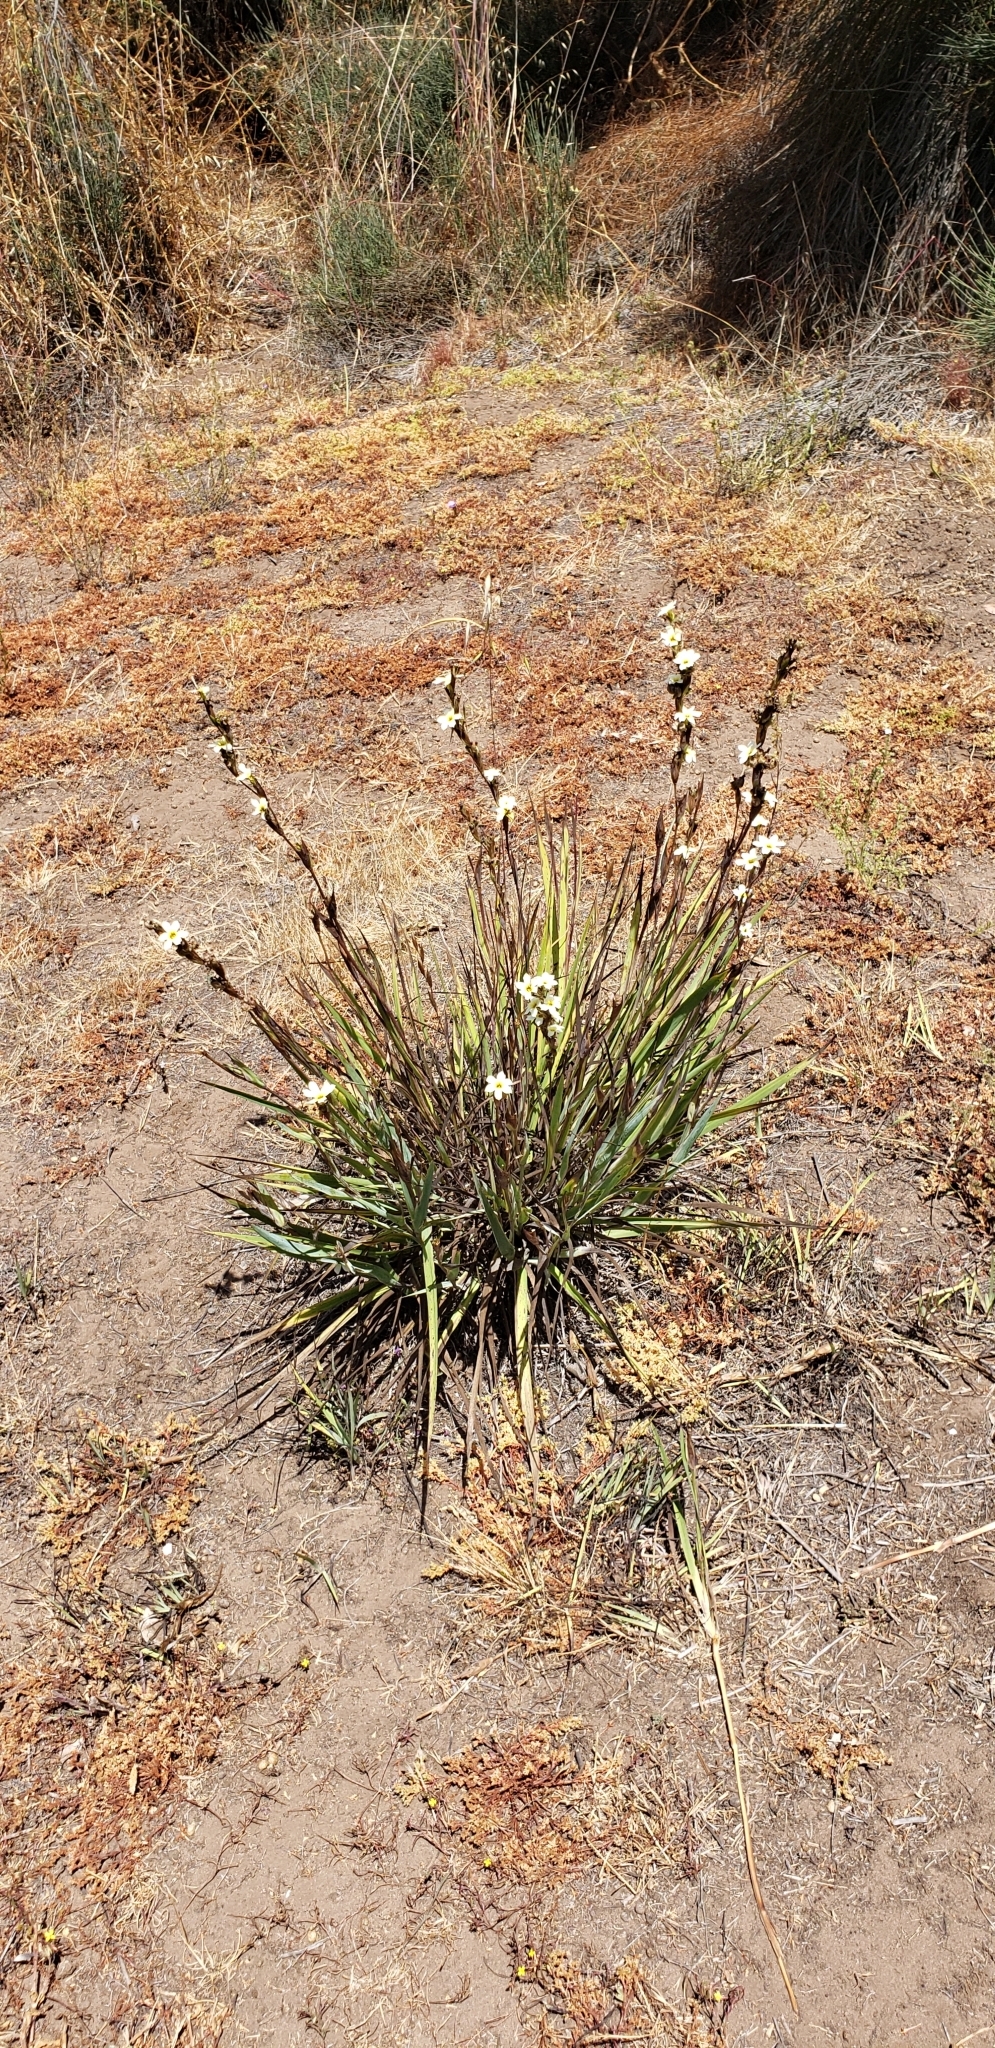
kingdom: Plantae
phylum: Tracheophyta
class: Liliopsida
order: Asparagales
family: Iridaceae
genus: Sisyrinchium
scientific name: Sisyrinchium striatum
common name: Pale yellow-eyed-grass
